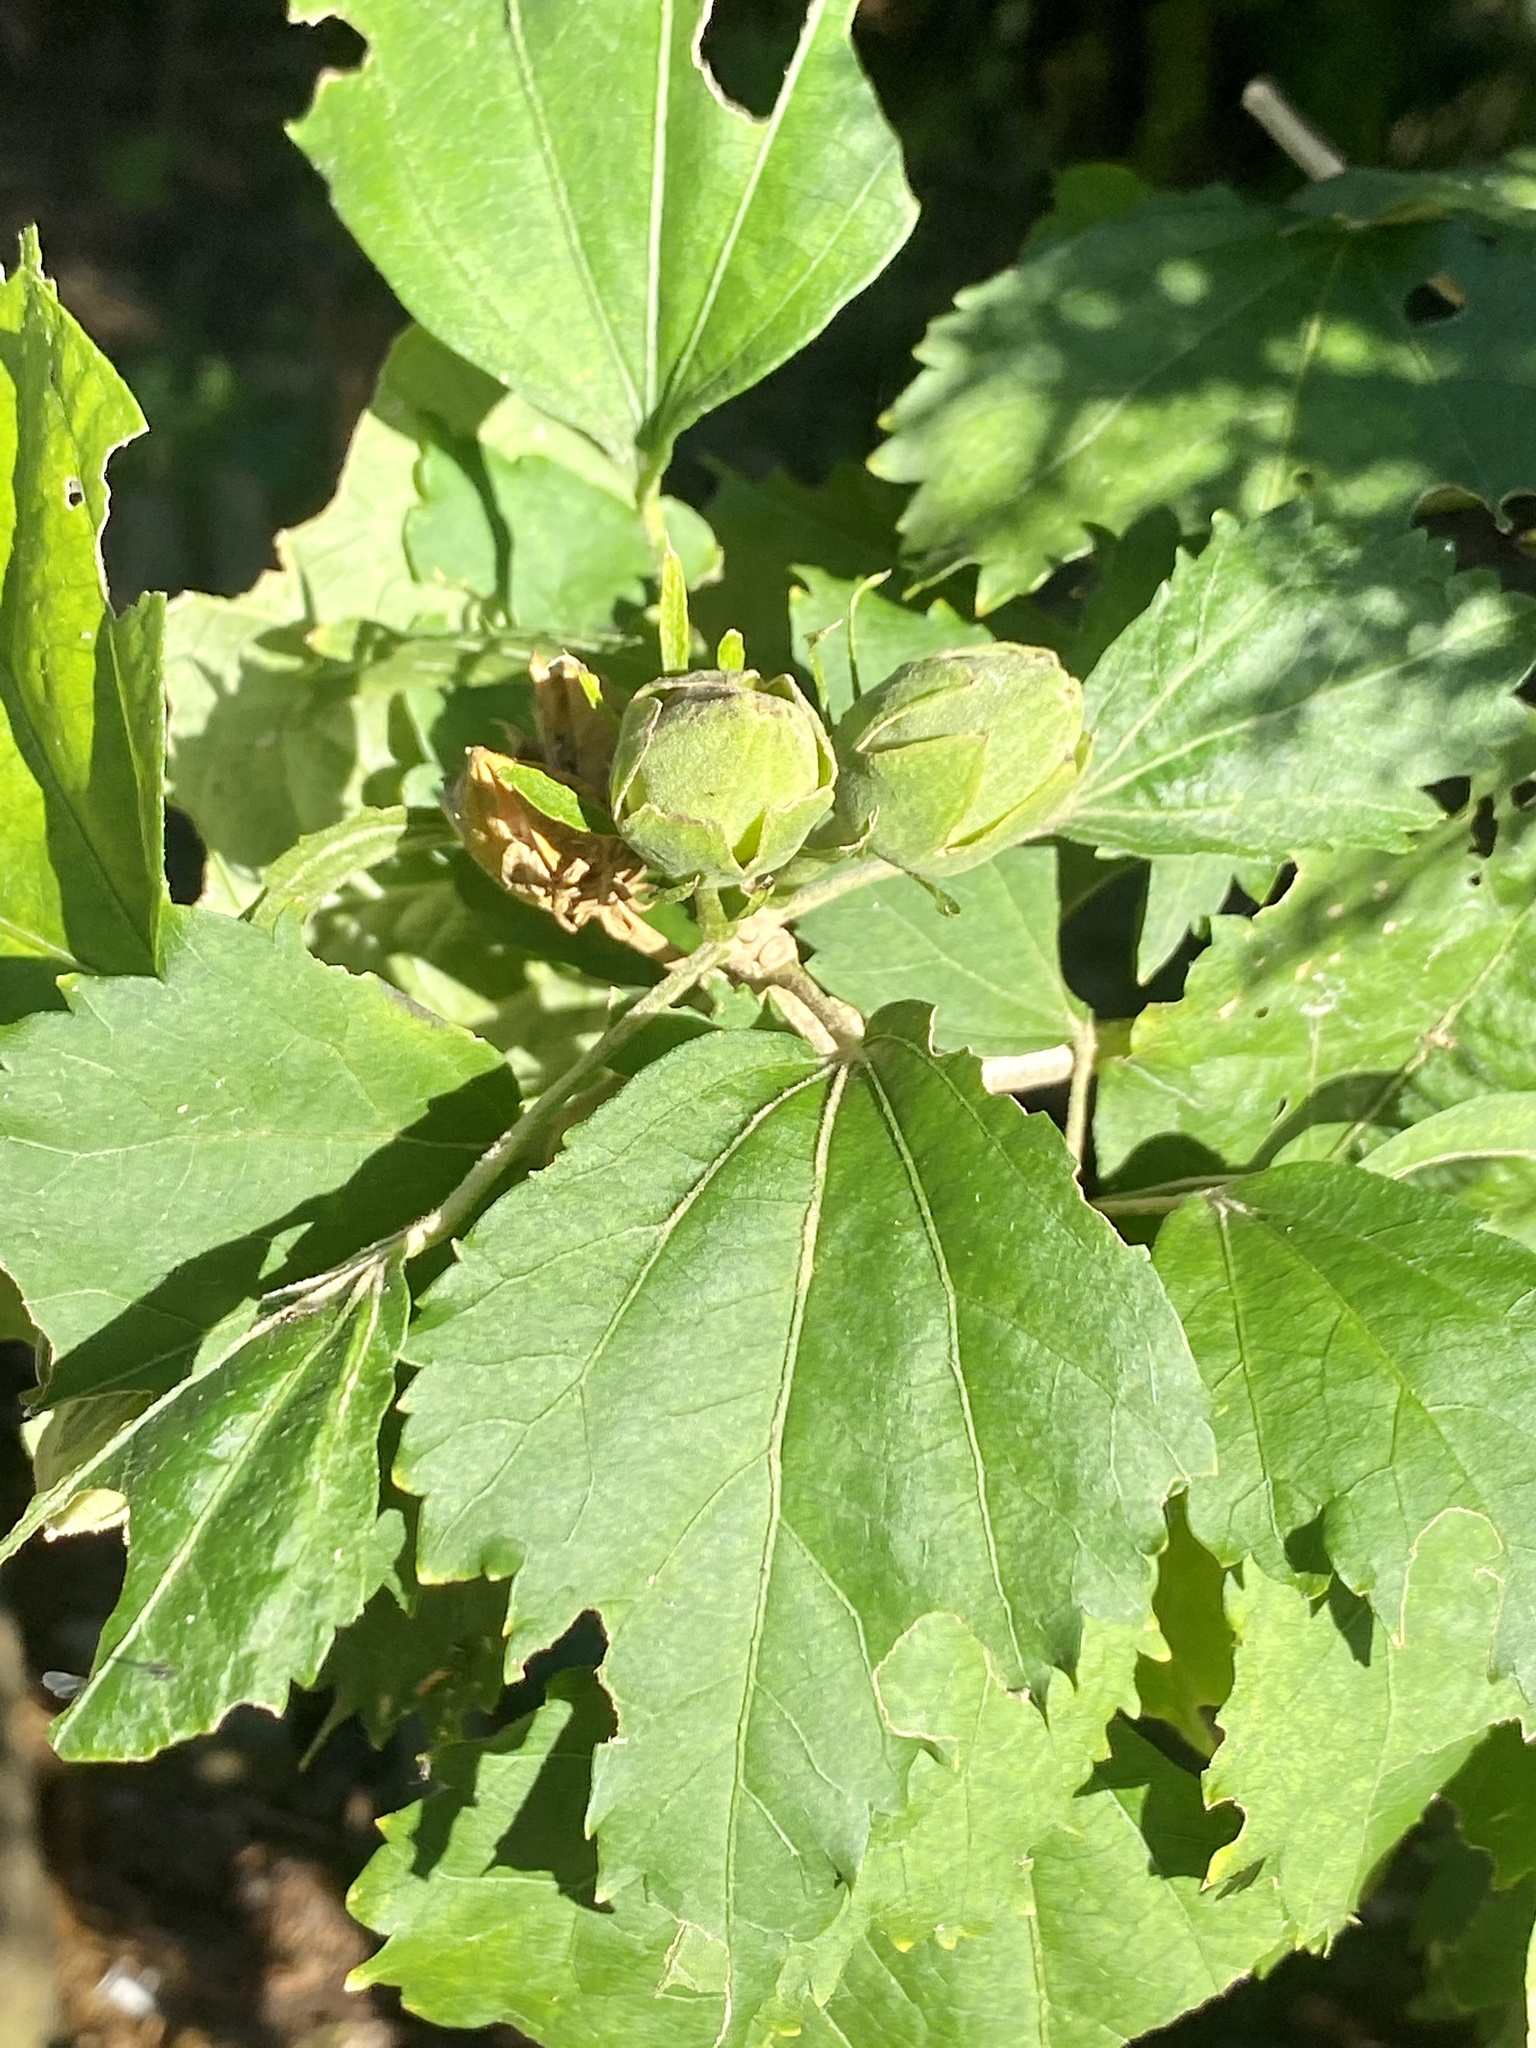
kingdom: Plantae
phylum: Tracheophyta
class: Magnoliopsida
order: Malvales
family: Malvaceae
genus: Hibiscus
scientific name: Hibiscus syriacus
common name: Syrian ketmia
